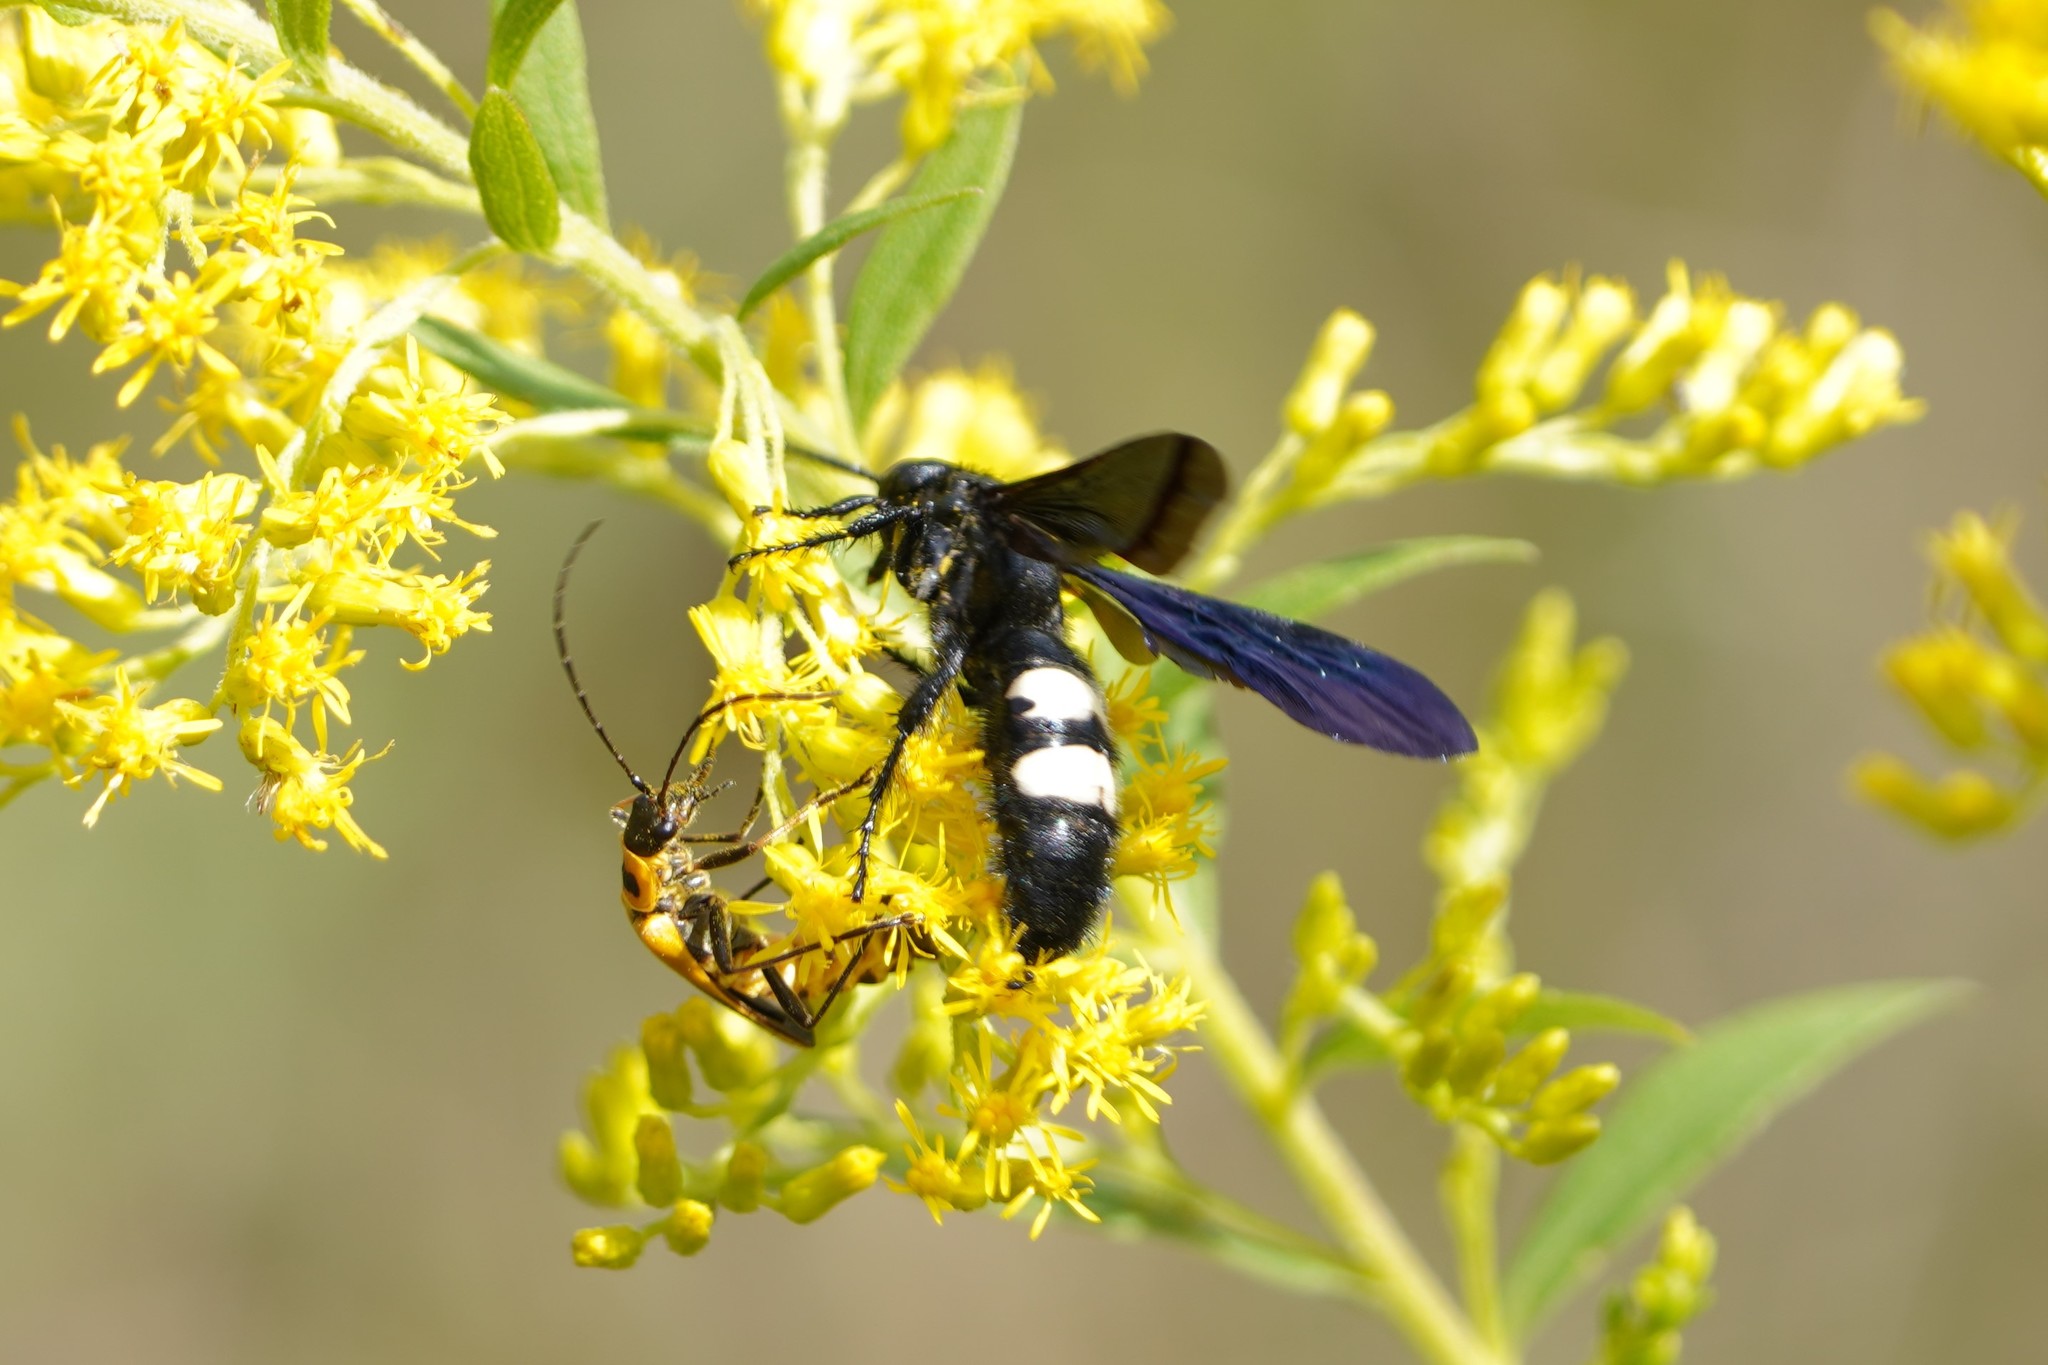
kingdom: Animalia
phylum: Arthropoda
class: Insecta
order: Hymenoptera
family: Scoliidae
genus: Scolia
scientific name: Scolia bicincta
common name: Double-banded scoliid wasp
